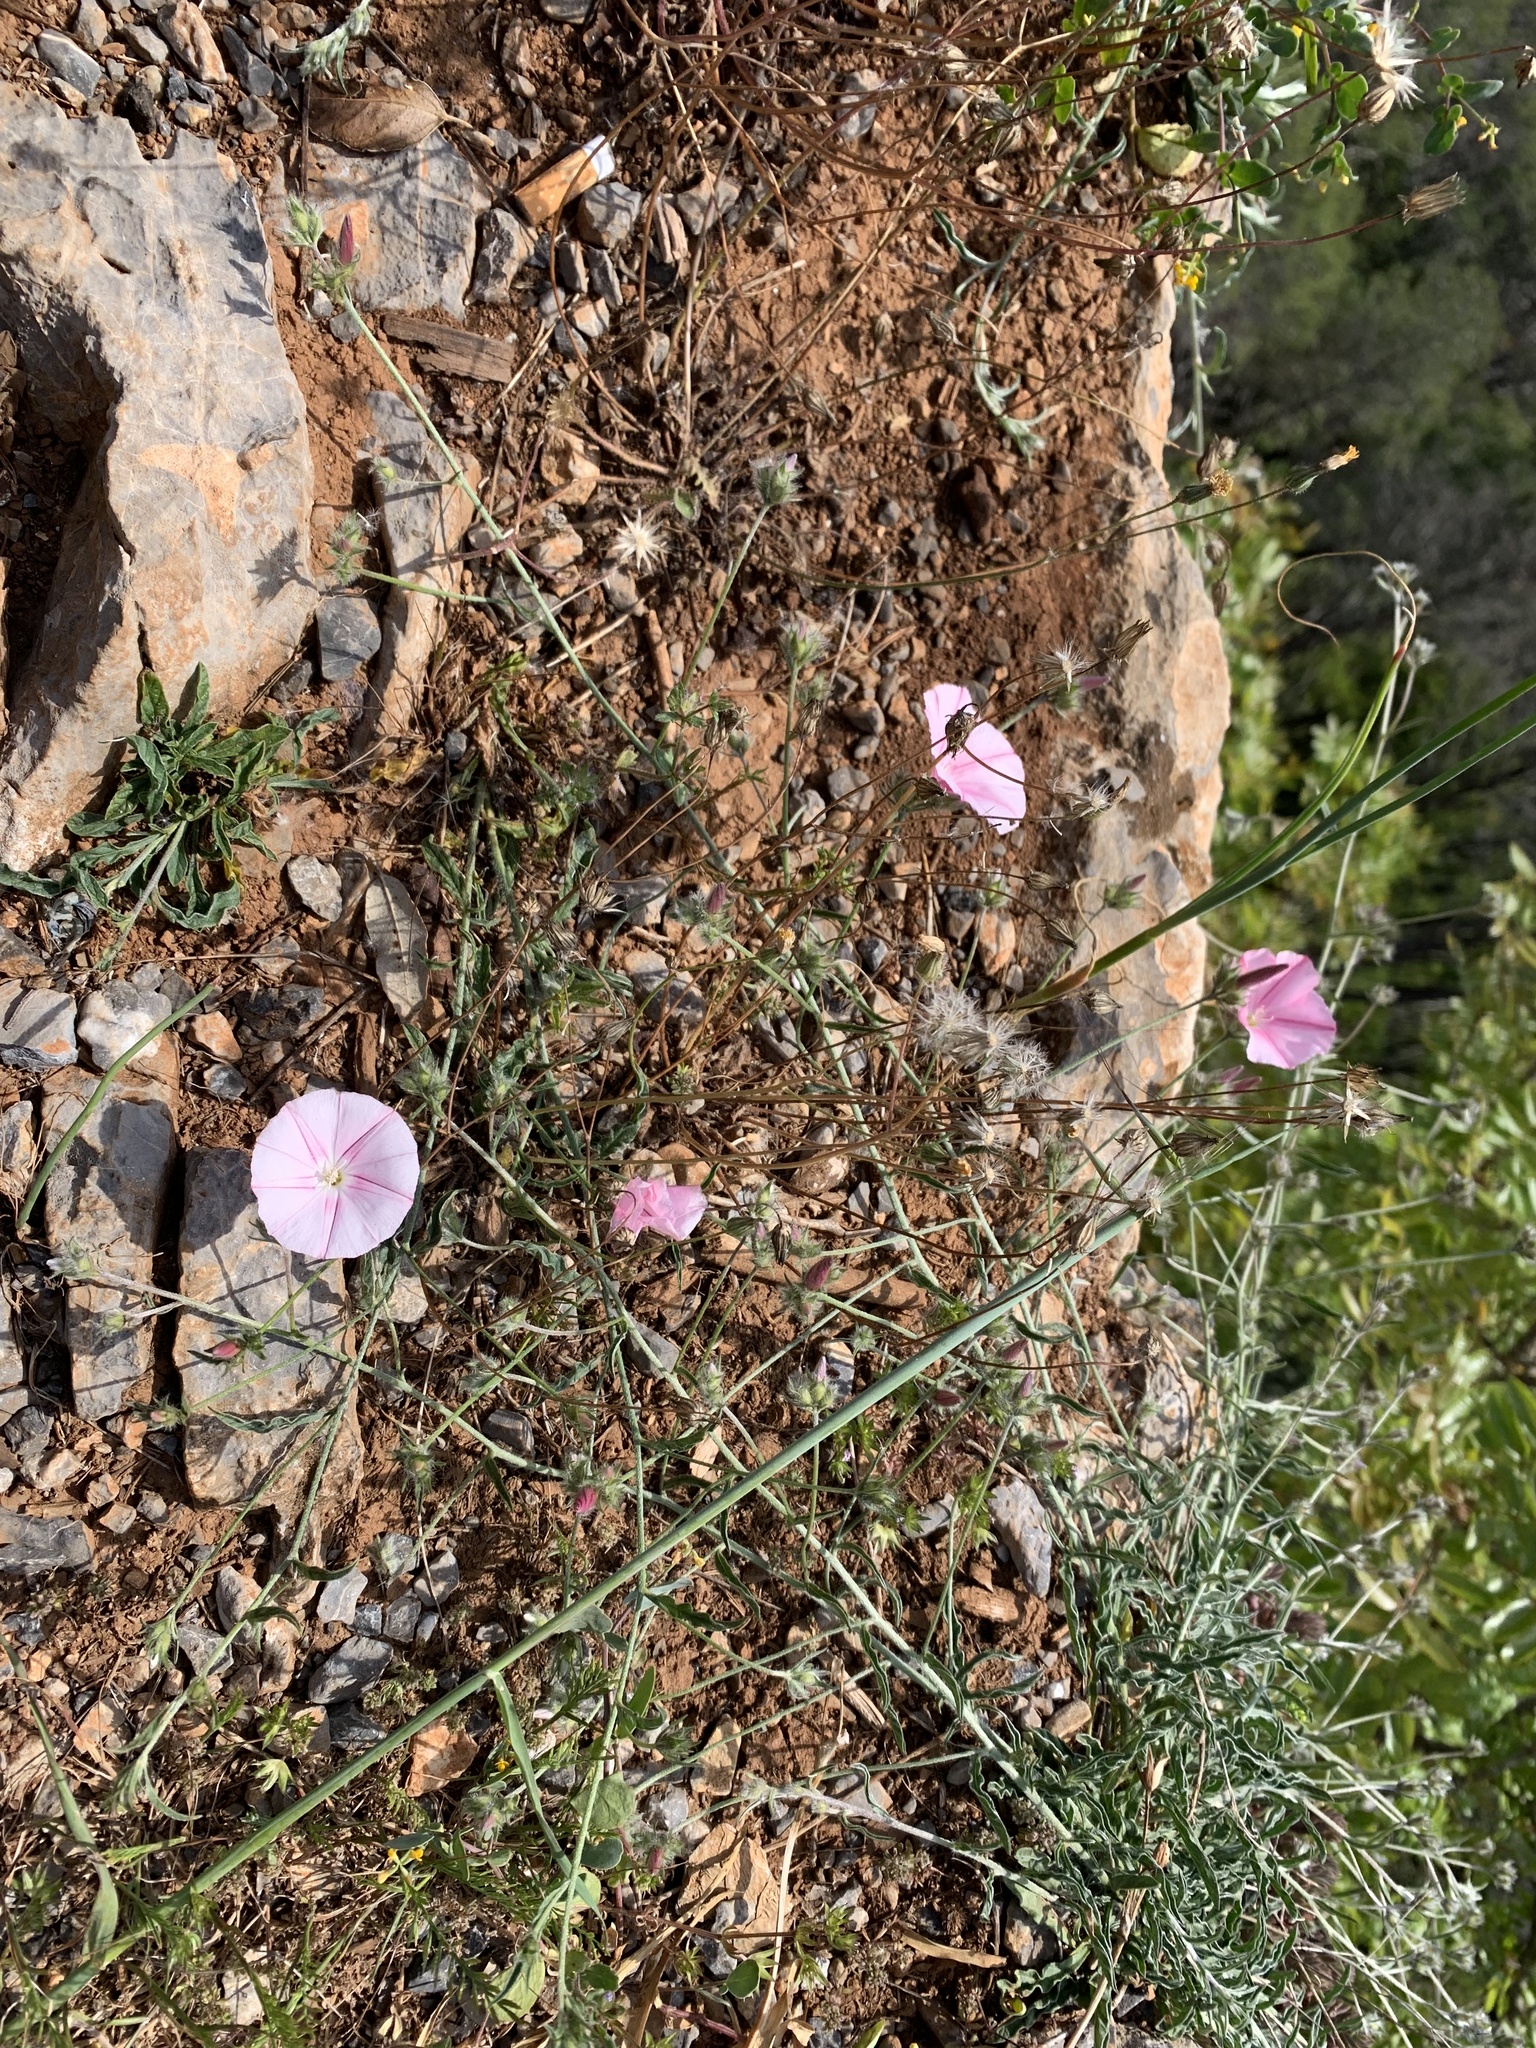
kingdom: Plantae
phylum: Tracheophyta
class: Magnoliopsida
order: Solanales
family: Convolvulaceae
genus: Convolvulus
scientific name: Convolvulus cantabrica
